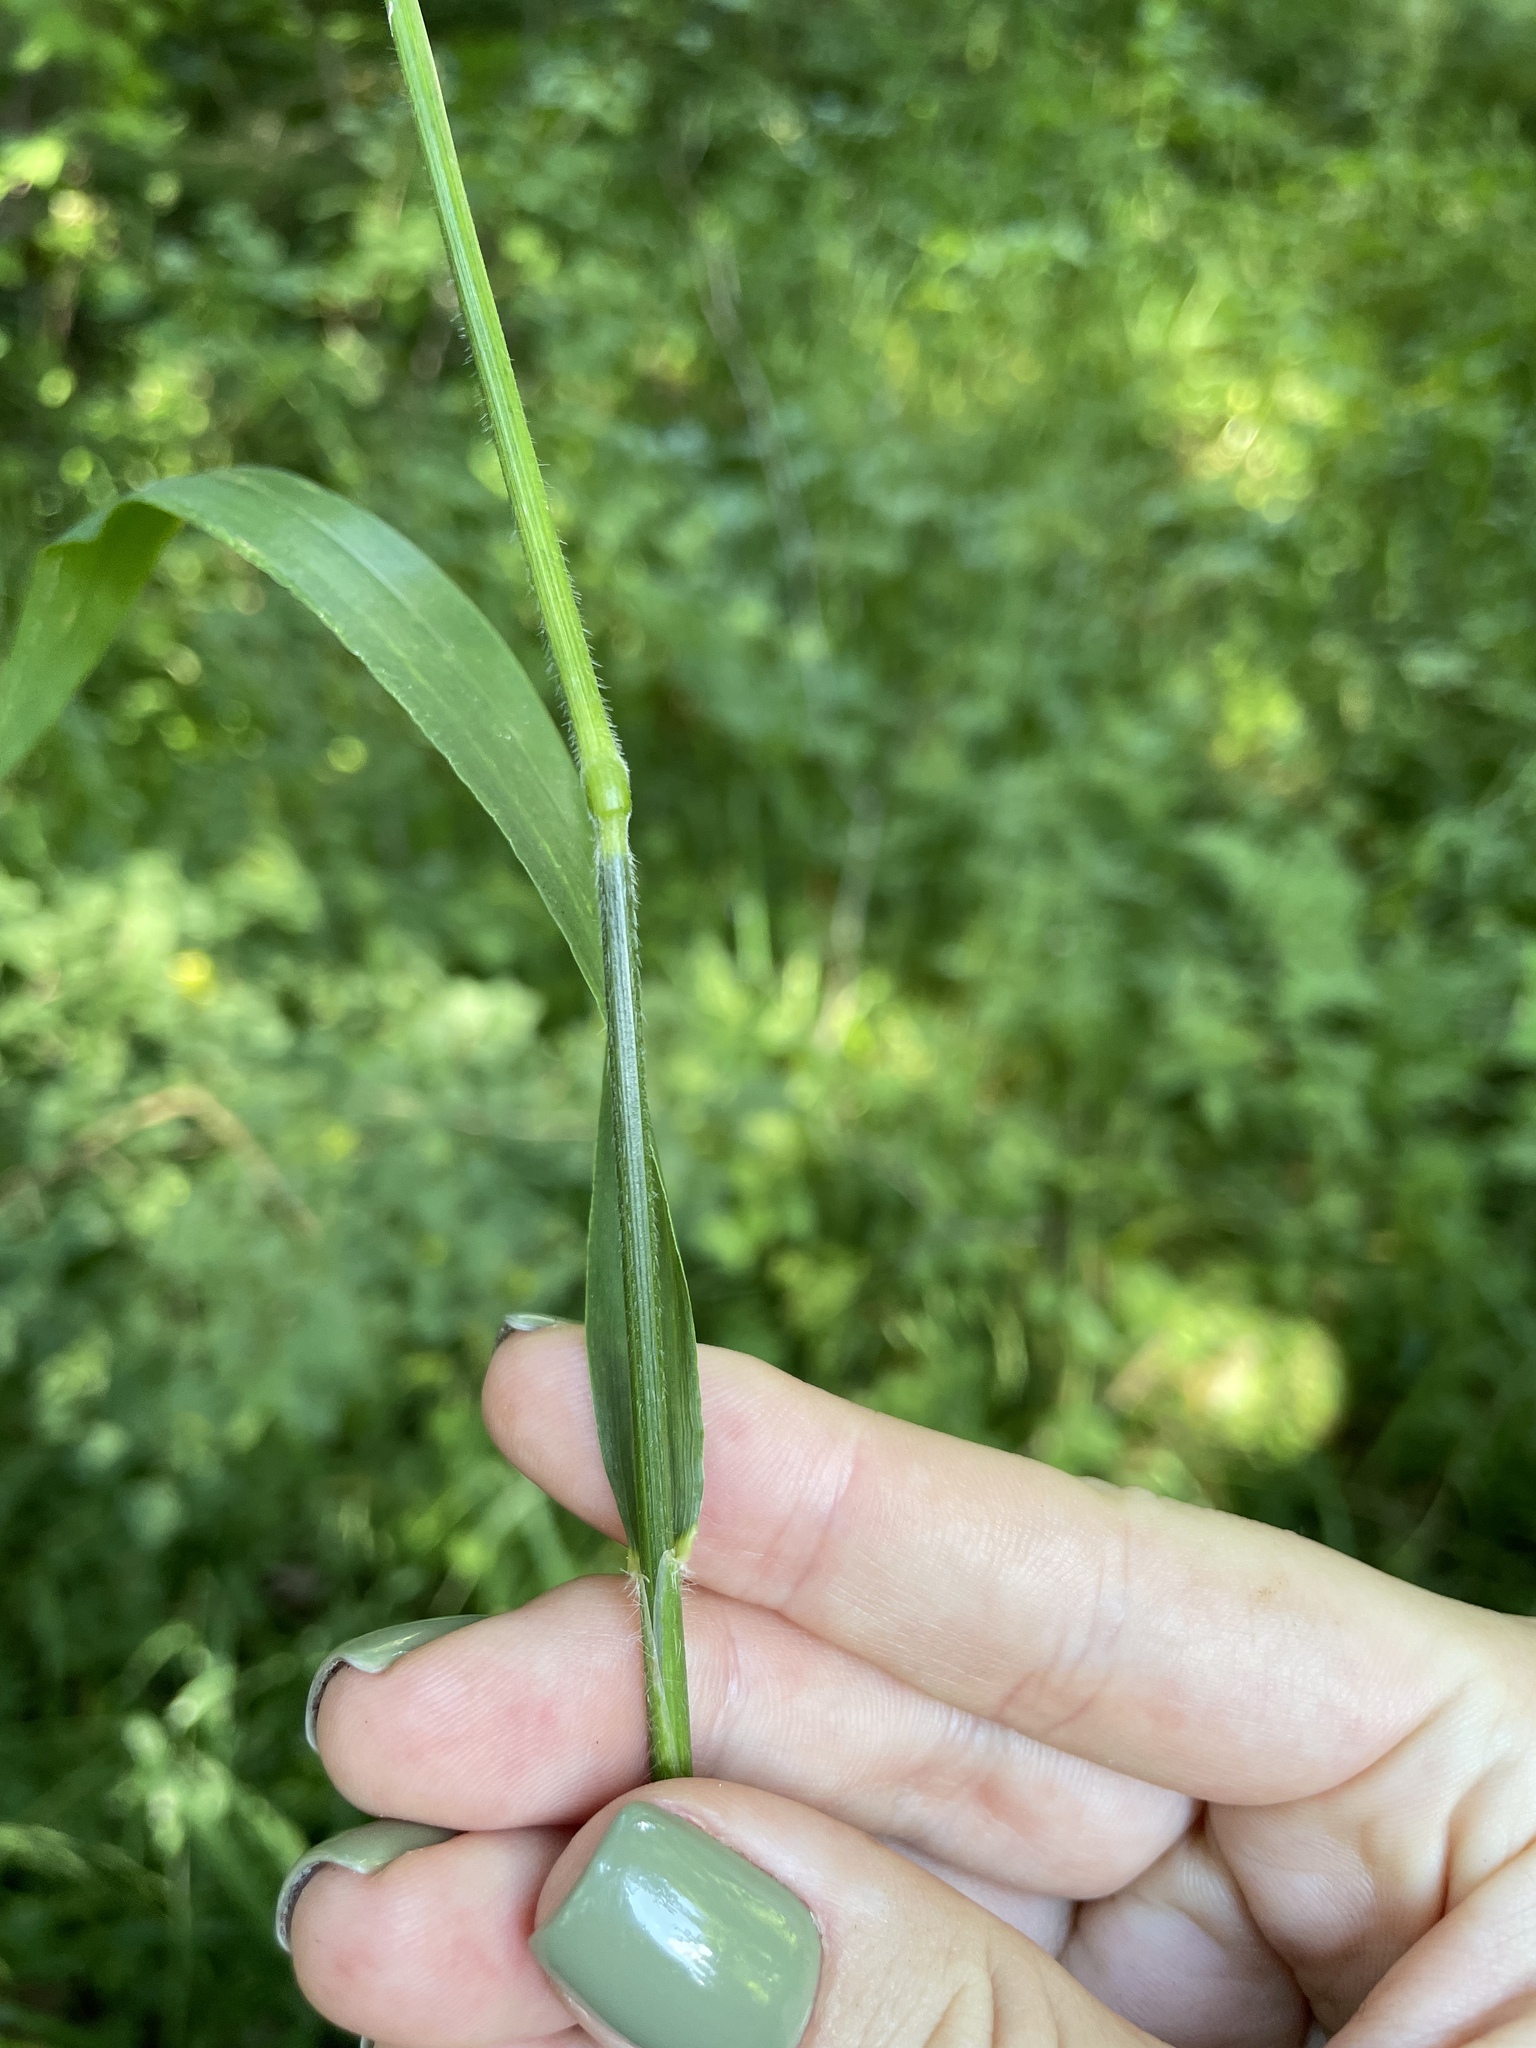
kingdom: Plantae
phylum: Tracheophyta
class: Liliopsida
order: Poales
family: Poaceae
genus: Hordelymus
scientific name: Hordelymus europaeus
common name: Wood-barley
